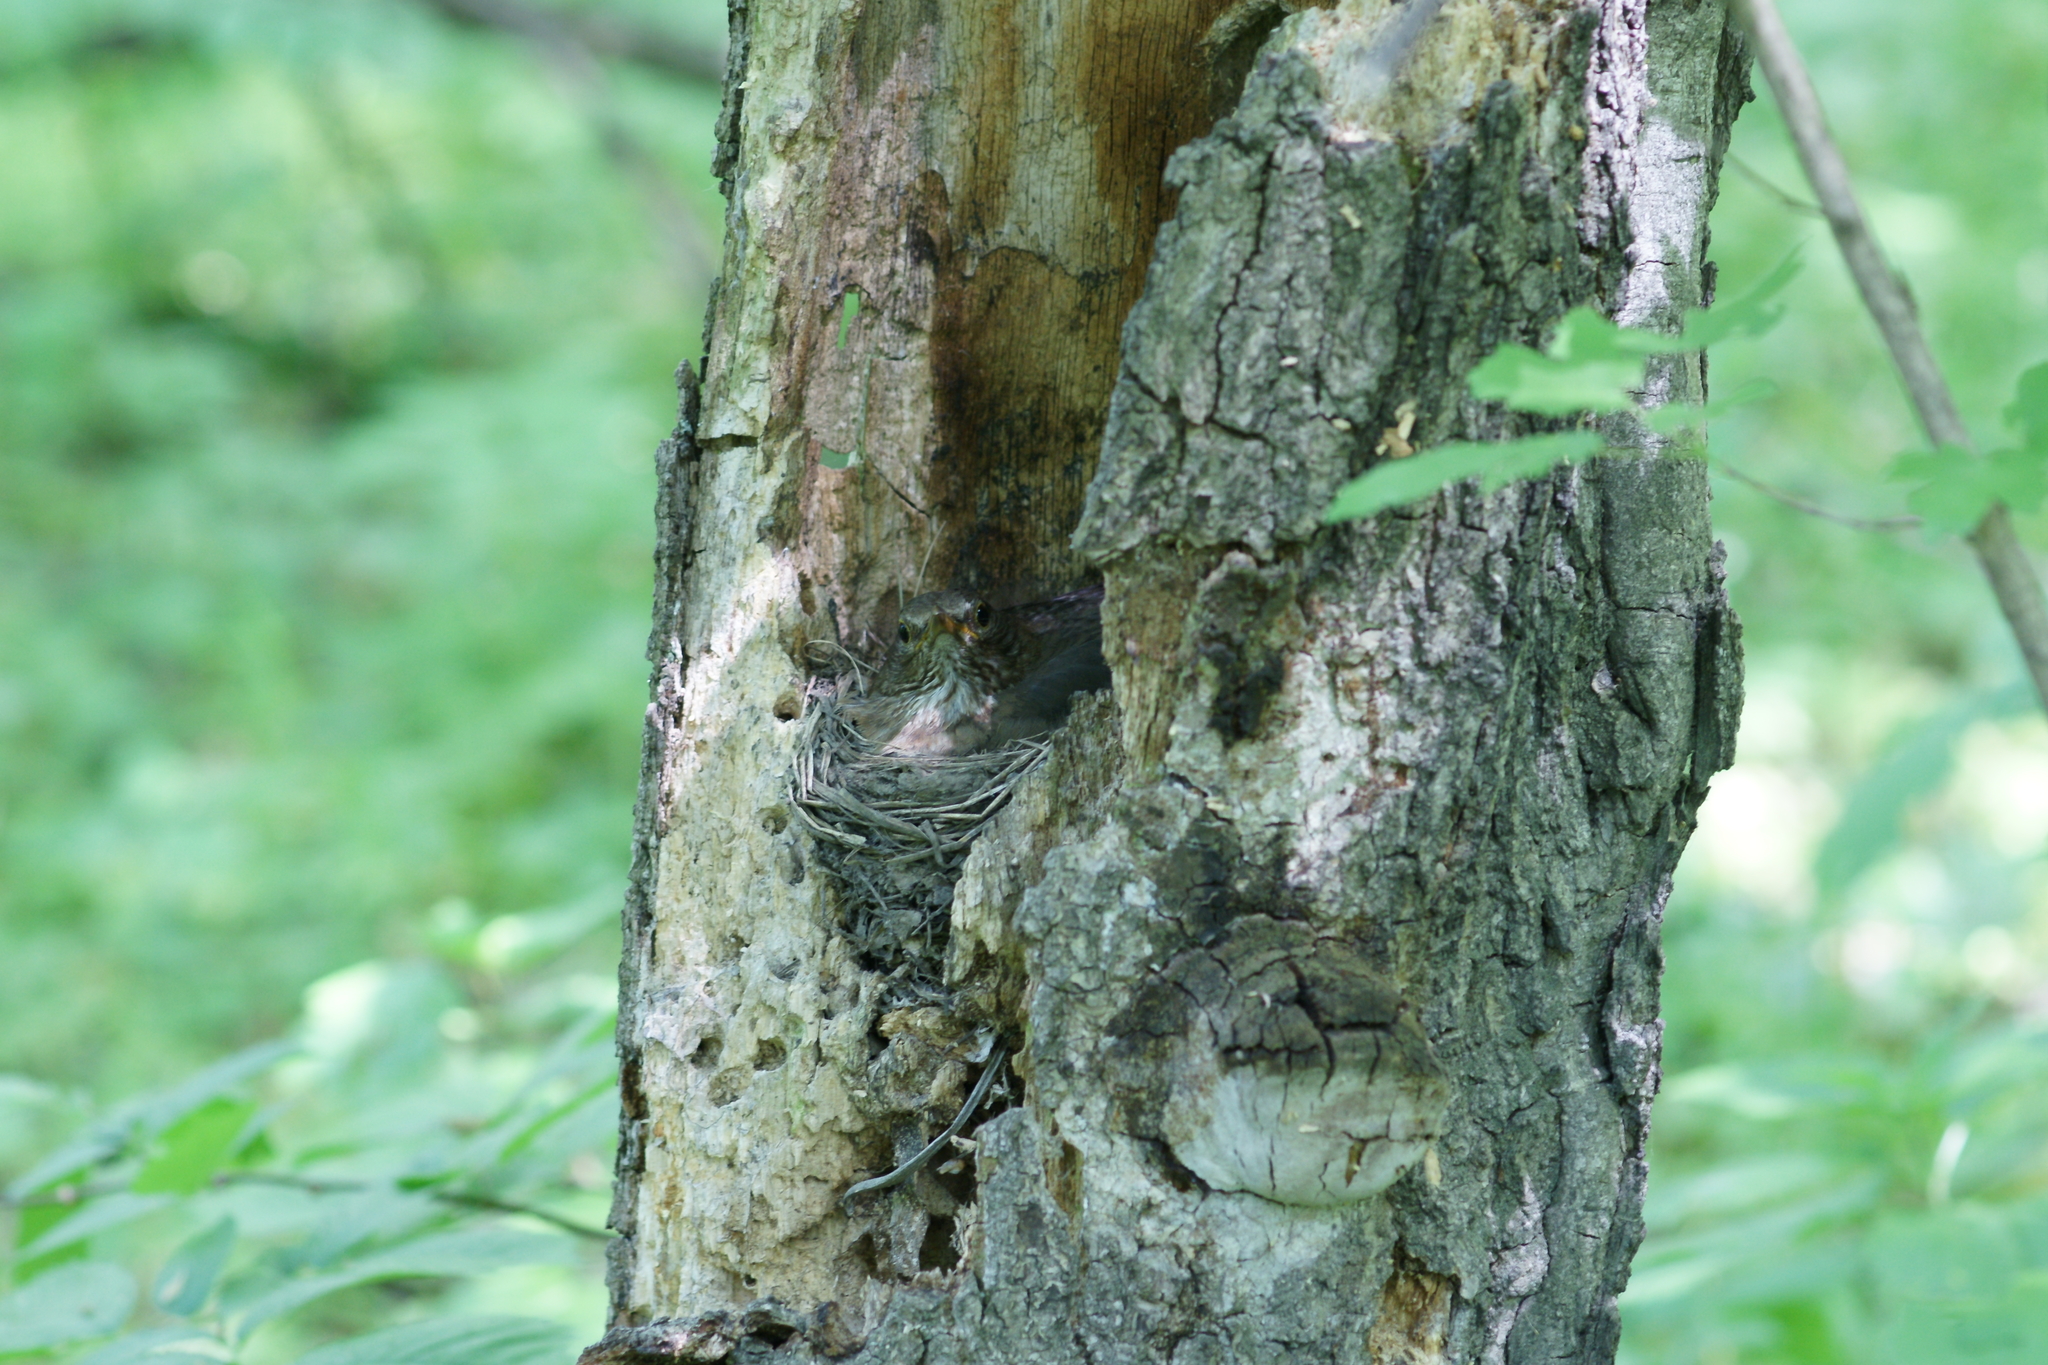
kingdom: Animalia
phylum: Chordata
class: Aves
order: Passeriformes
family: Turdidae
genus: Turdus
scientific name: Turdus merula
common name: Common blackbird
